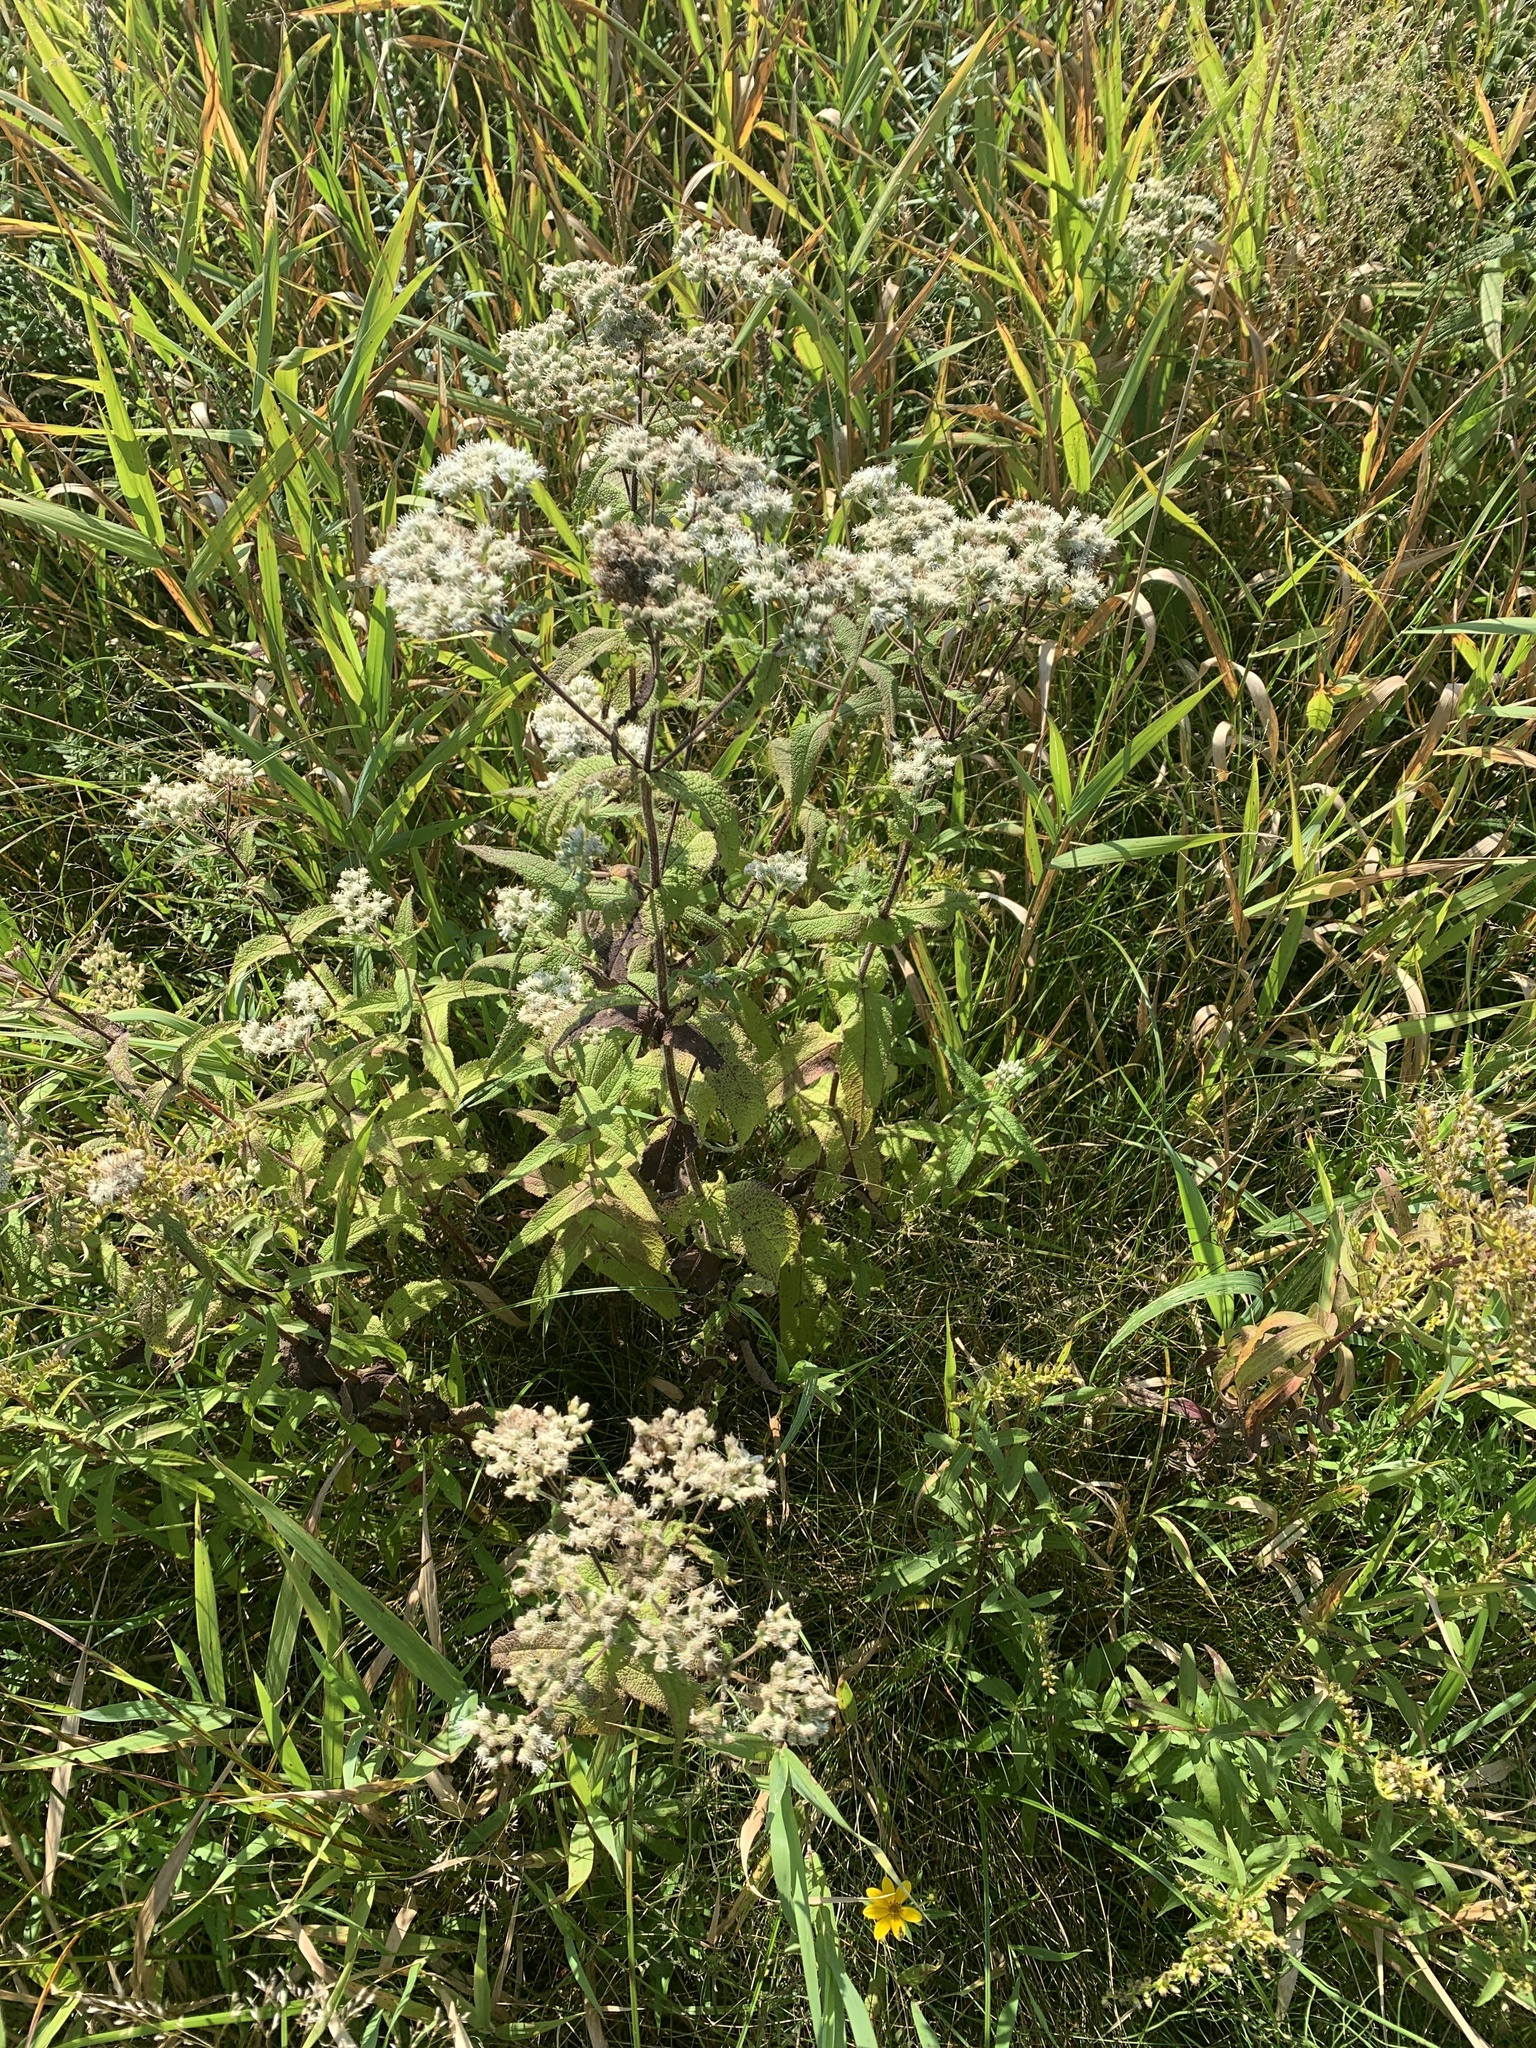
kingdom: Plantae
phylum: Tracheophyta
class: Magnoliopsida
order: Asterales
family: Asteraceae
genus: Eupatorium
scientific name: Eupatorium perfoliatum
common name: Boneset
